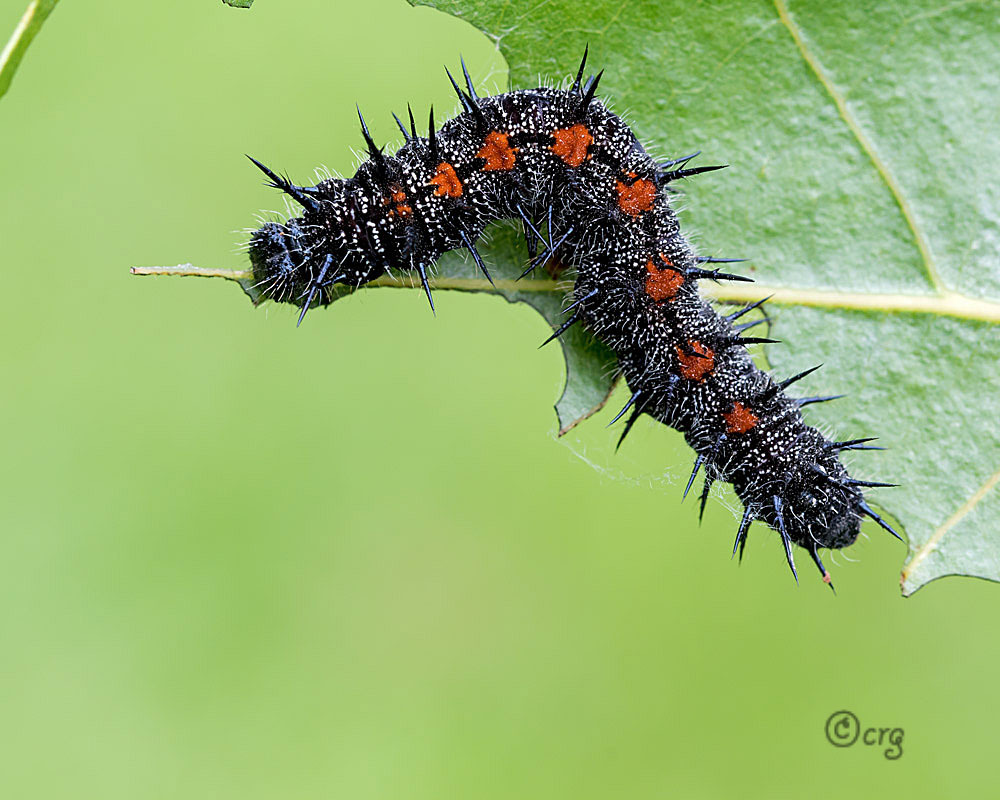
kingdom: Animalia
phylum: Arthropoda
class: Insecta
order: Lepidoptera
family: Nymphalidae
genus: Nymphalis
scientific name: Nymphalis antiopa
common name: Camberwell beauty
